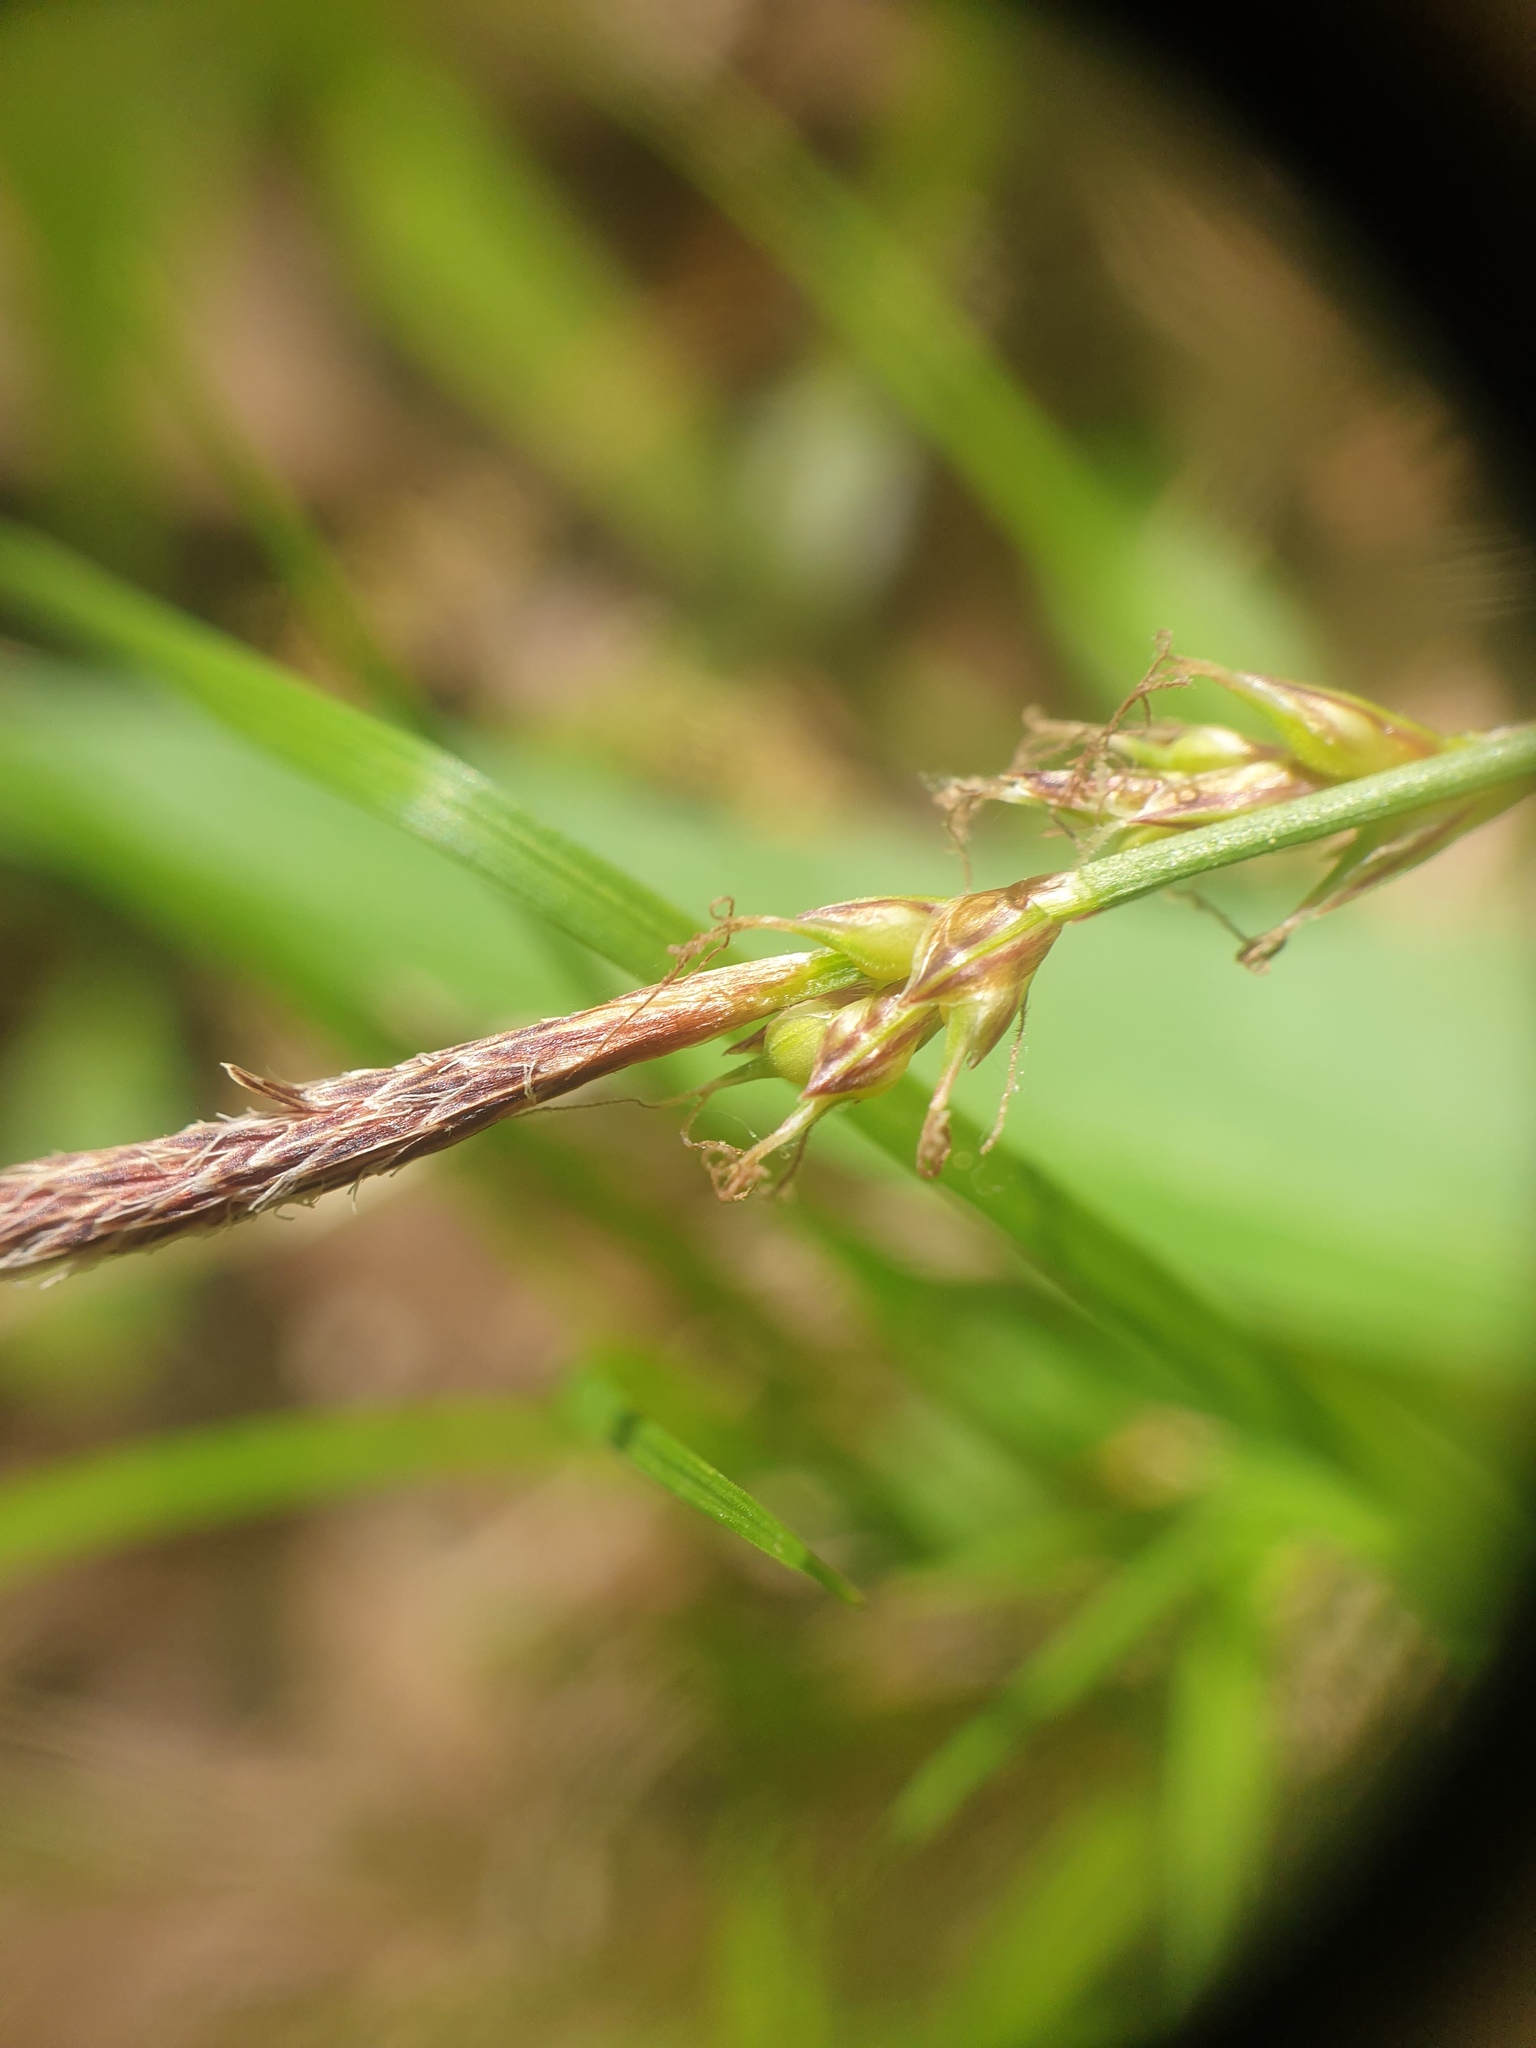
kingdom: Plantae
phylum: Tracheophyta
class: Liliopsida
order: Poales
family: Cyperaceae
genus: Carex
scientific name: Carex lucorum
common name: Blue ridge sedge
